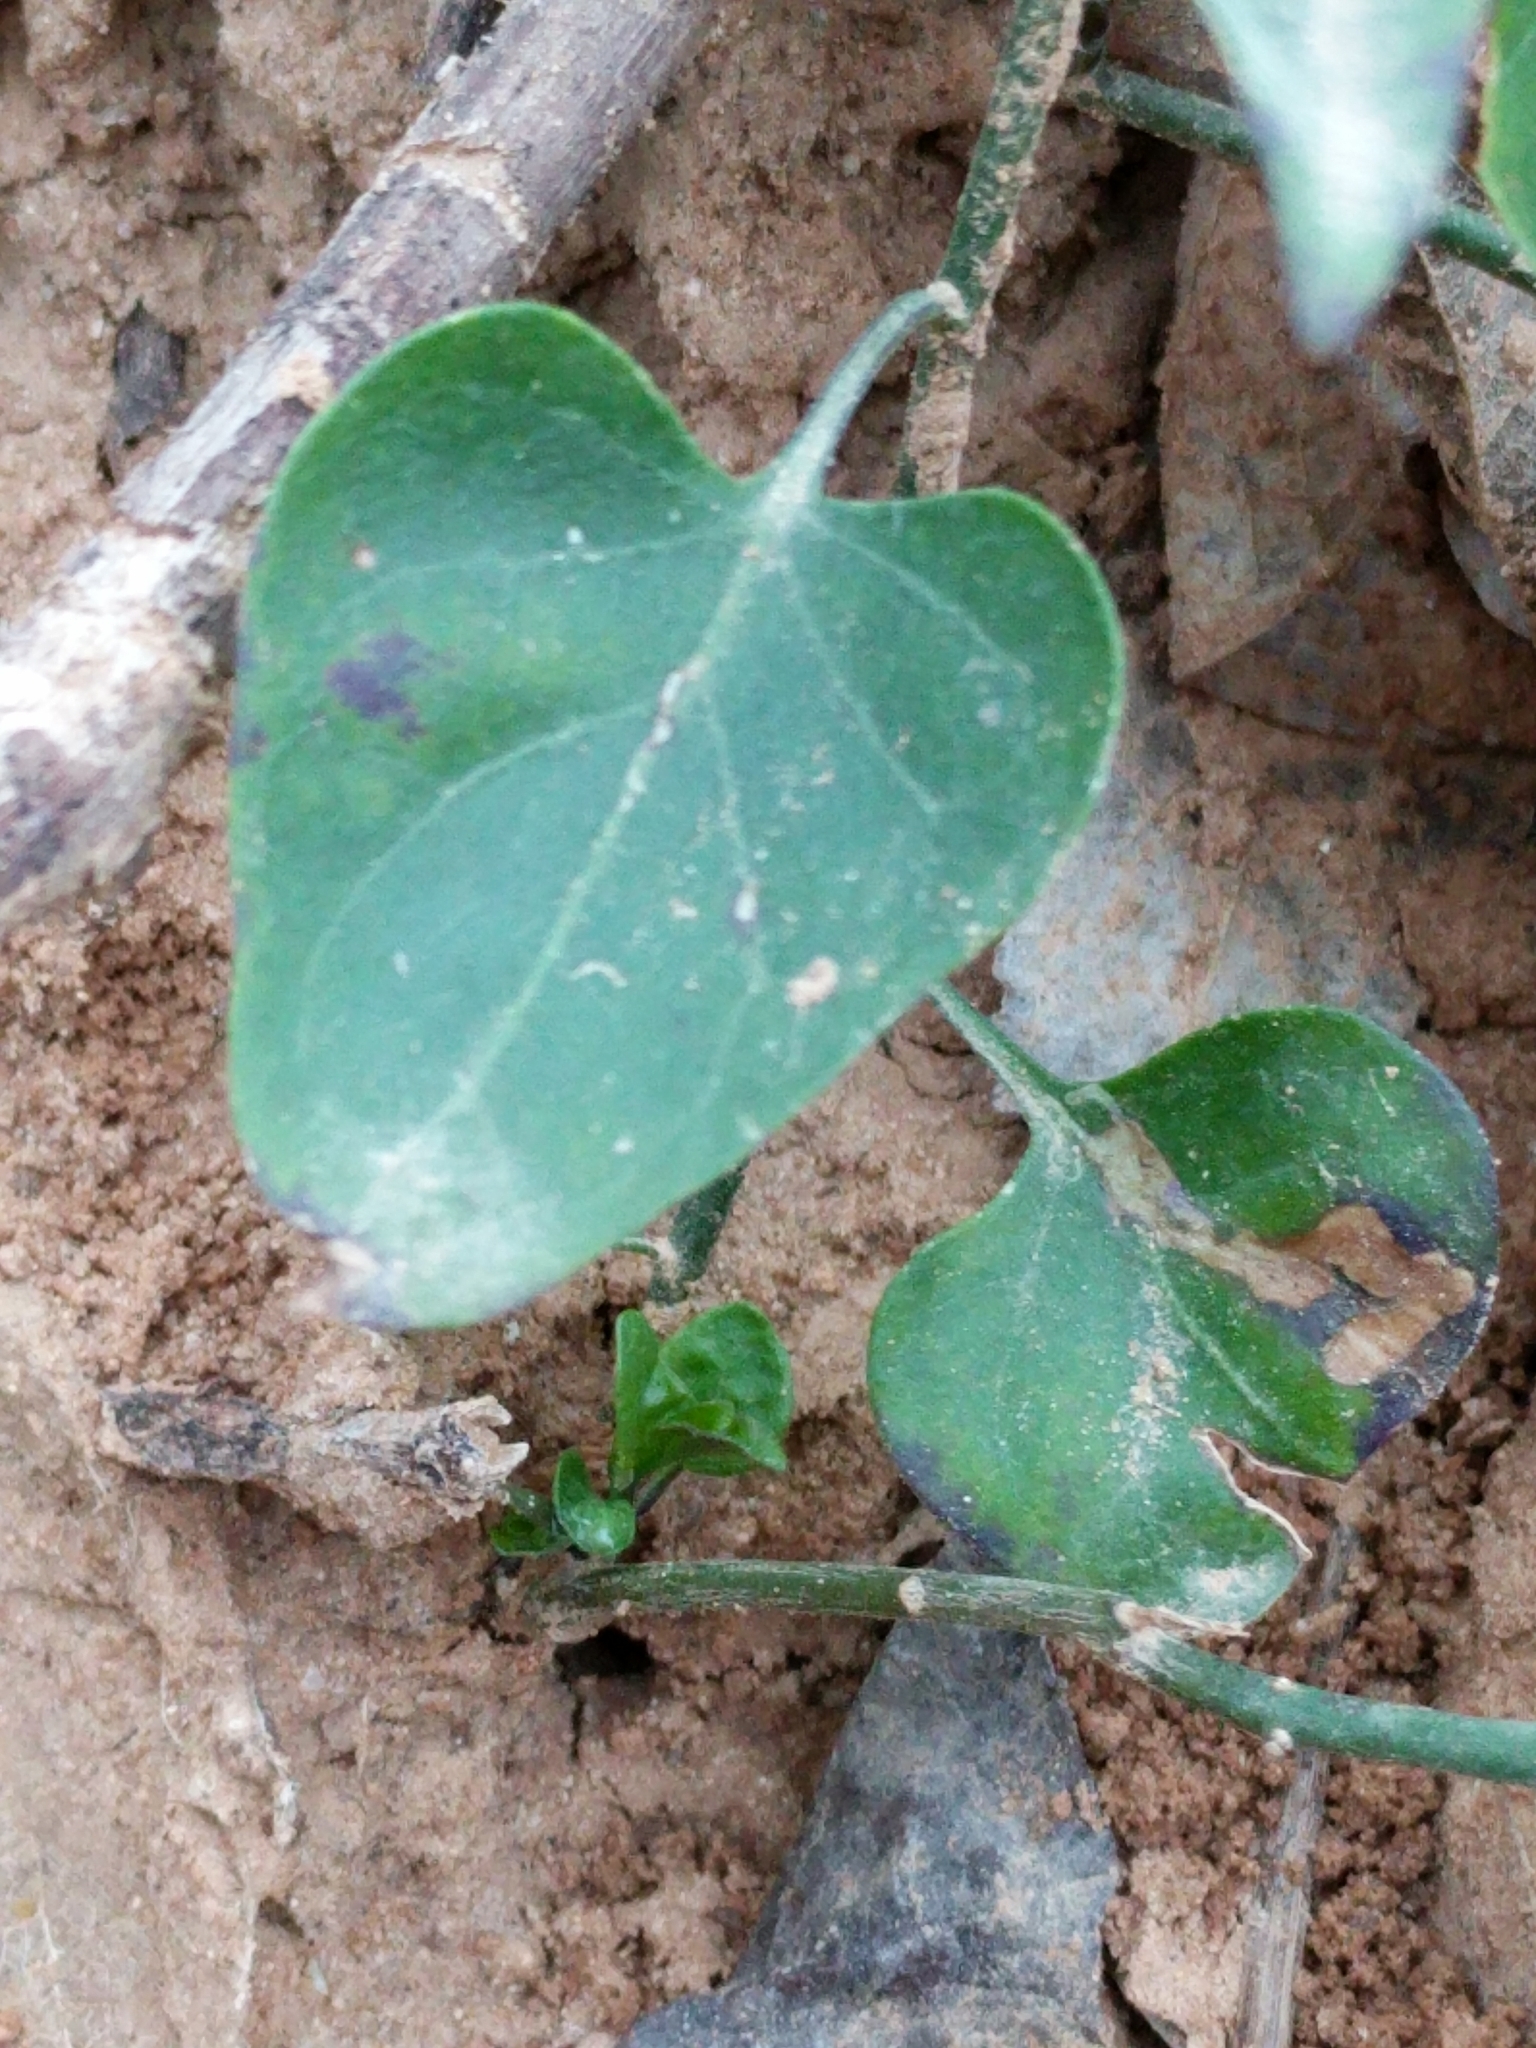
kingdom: Plantae
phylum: Tracheophyta
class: Magnoliopsida
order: Solanales
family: Solanaceae
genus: Solanum
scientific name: Solanum triquetrum
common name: Texas nightshade
